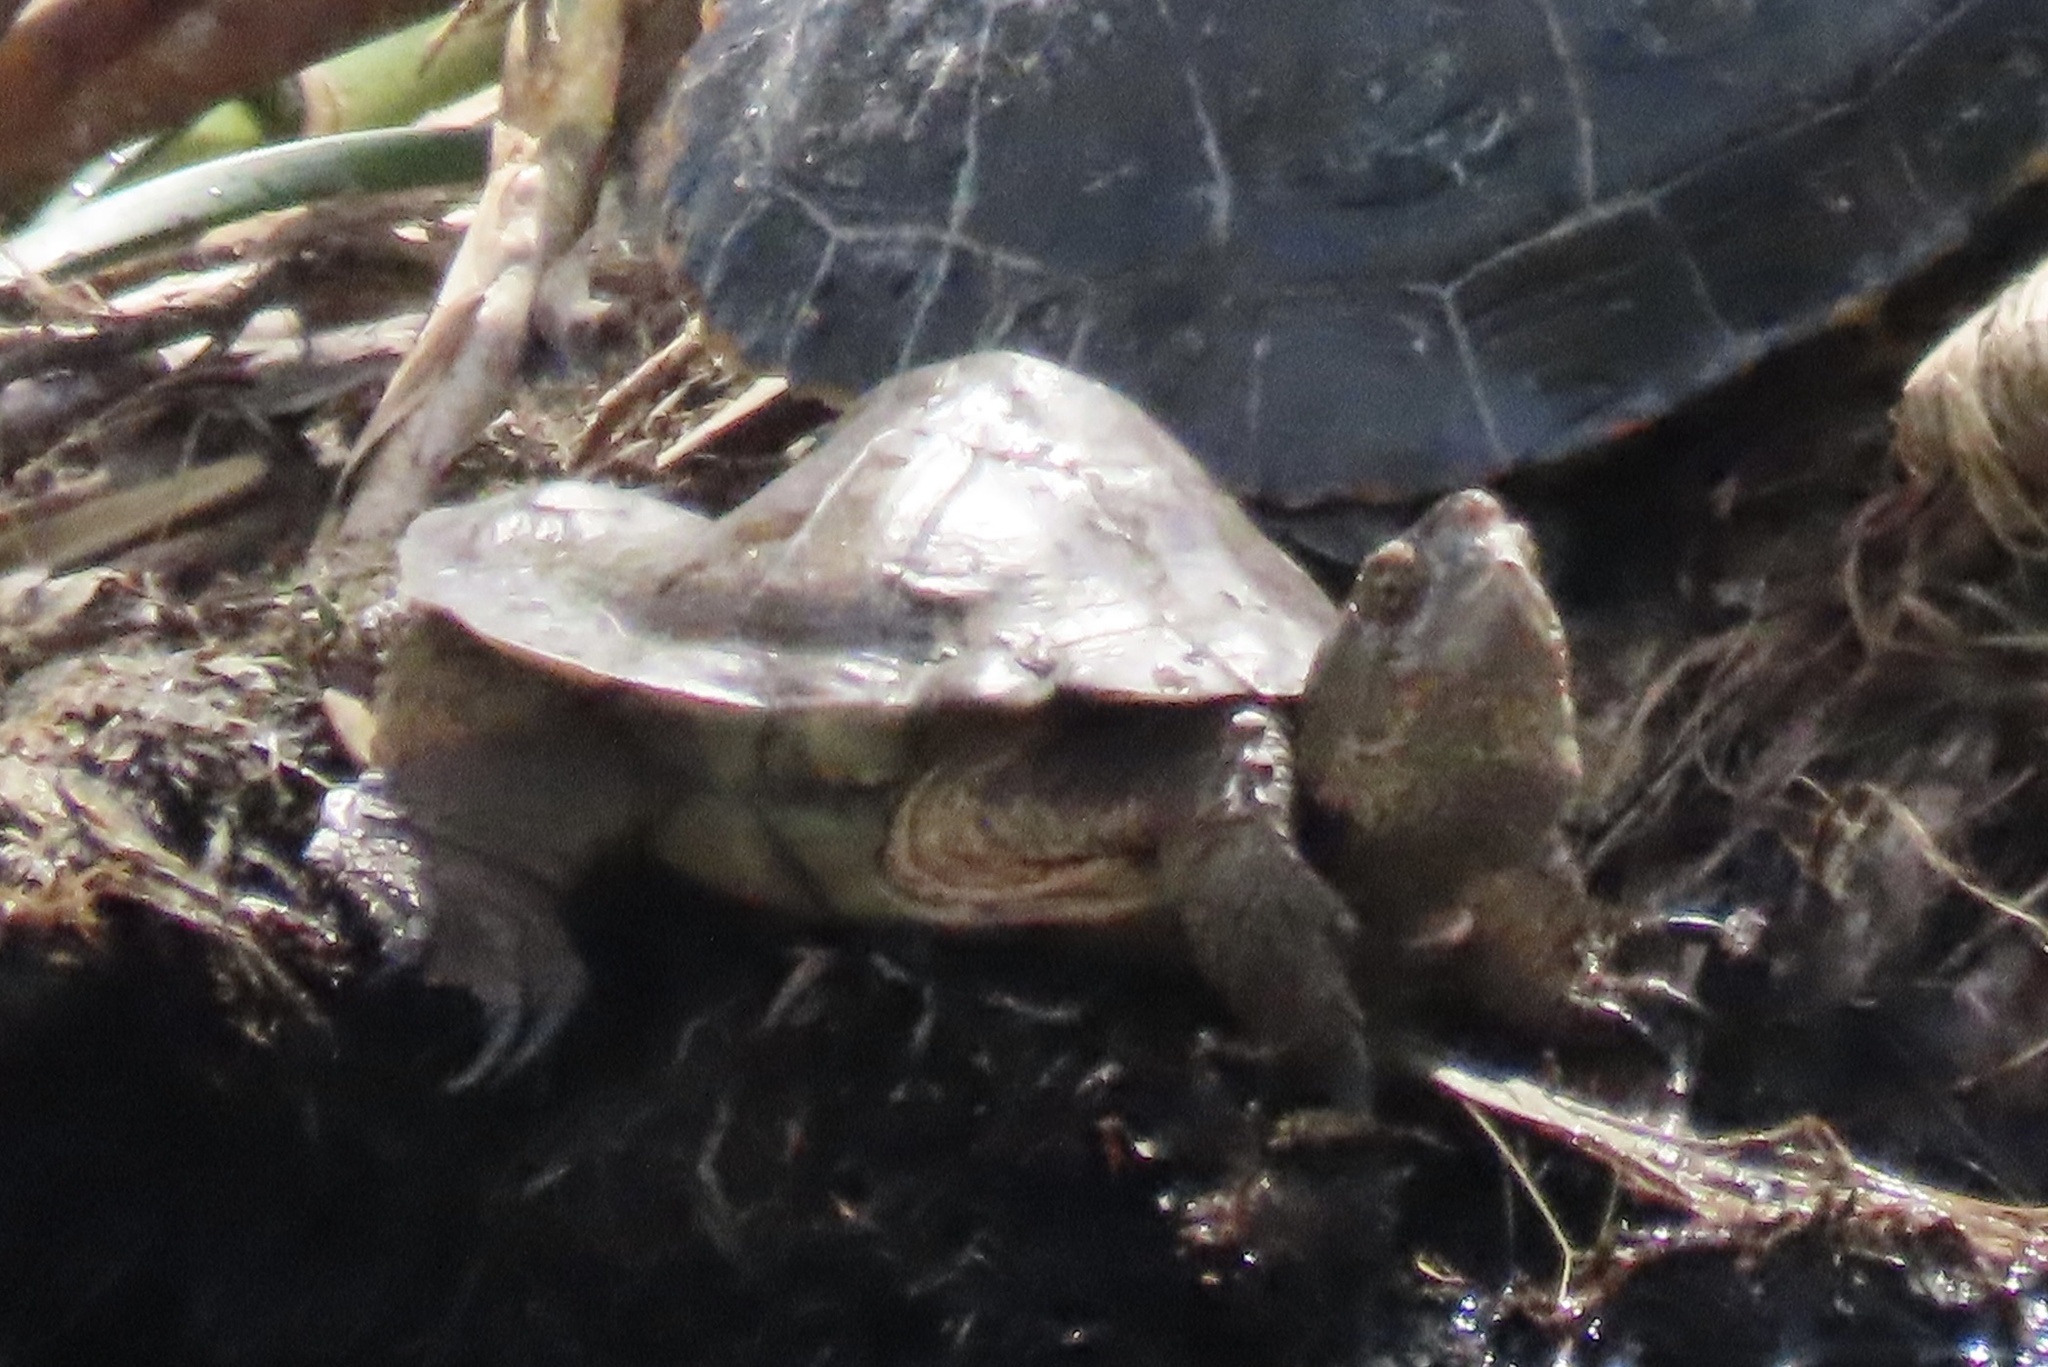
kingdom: Animalia
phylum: Chordata
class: Testudines
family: Emydidae
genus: Actinemys
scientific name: Actinemys pallida
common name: Southern pacific pond turtle
